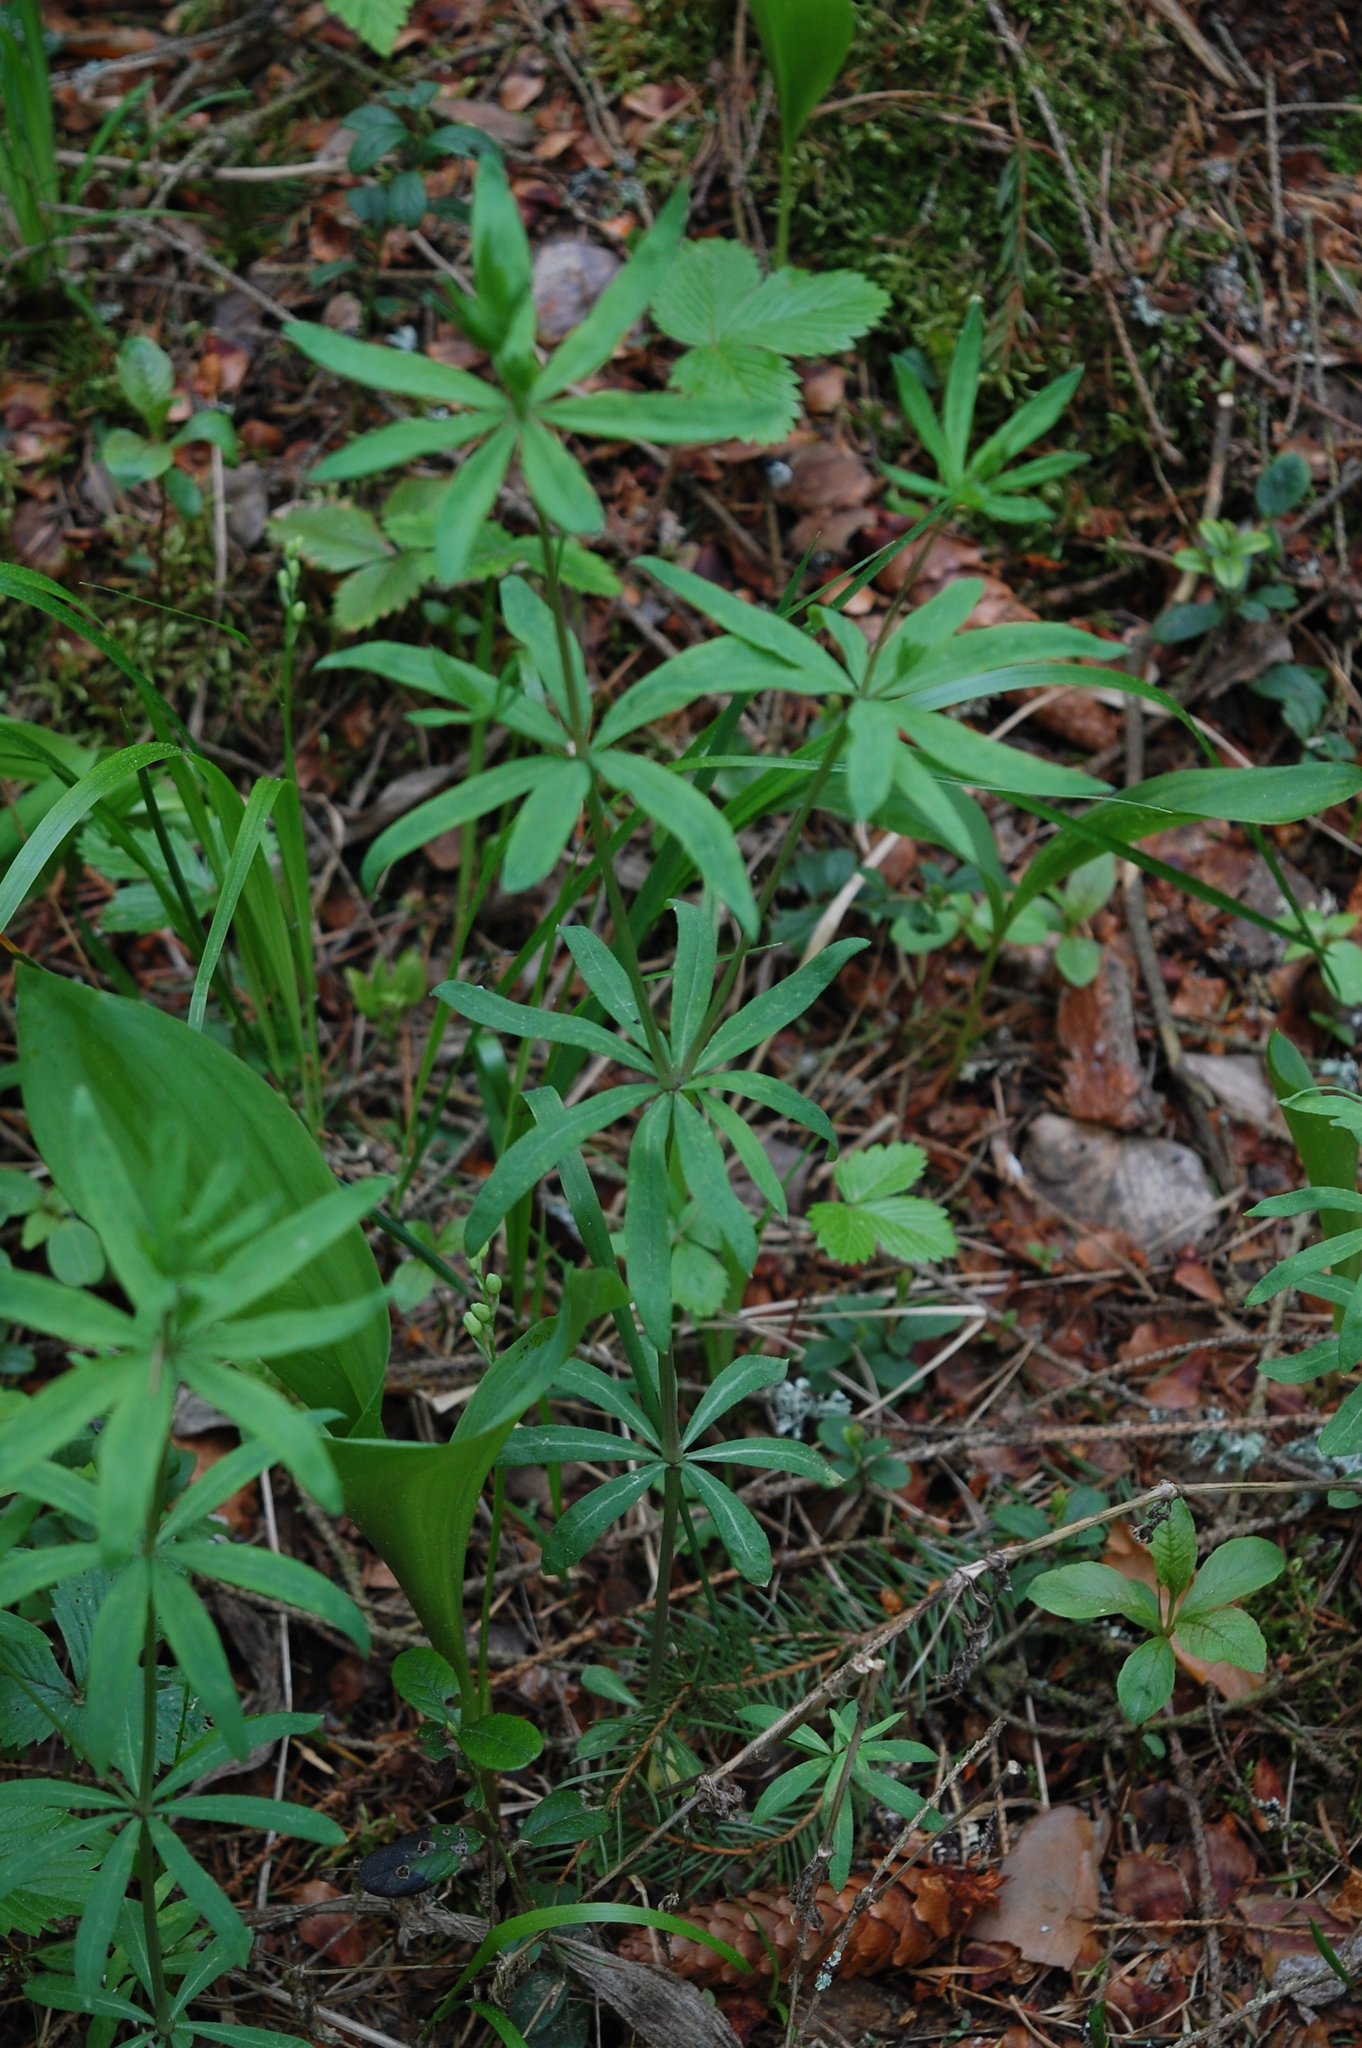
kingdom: Plantae
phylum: Tracheophyta
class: Magnoliopsida
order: Gentianales
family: Rubiaceae
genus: Galium
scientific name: Galium intermedium
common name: Bedstraw
